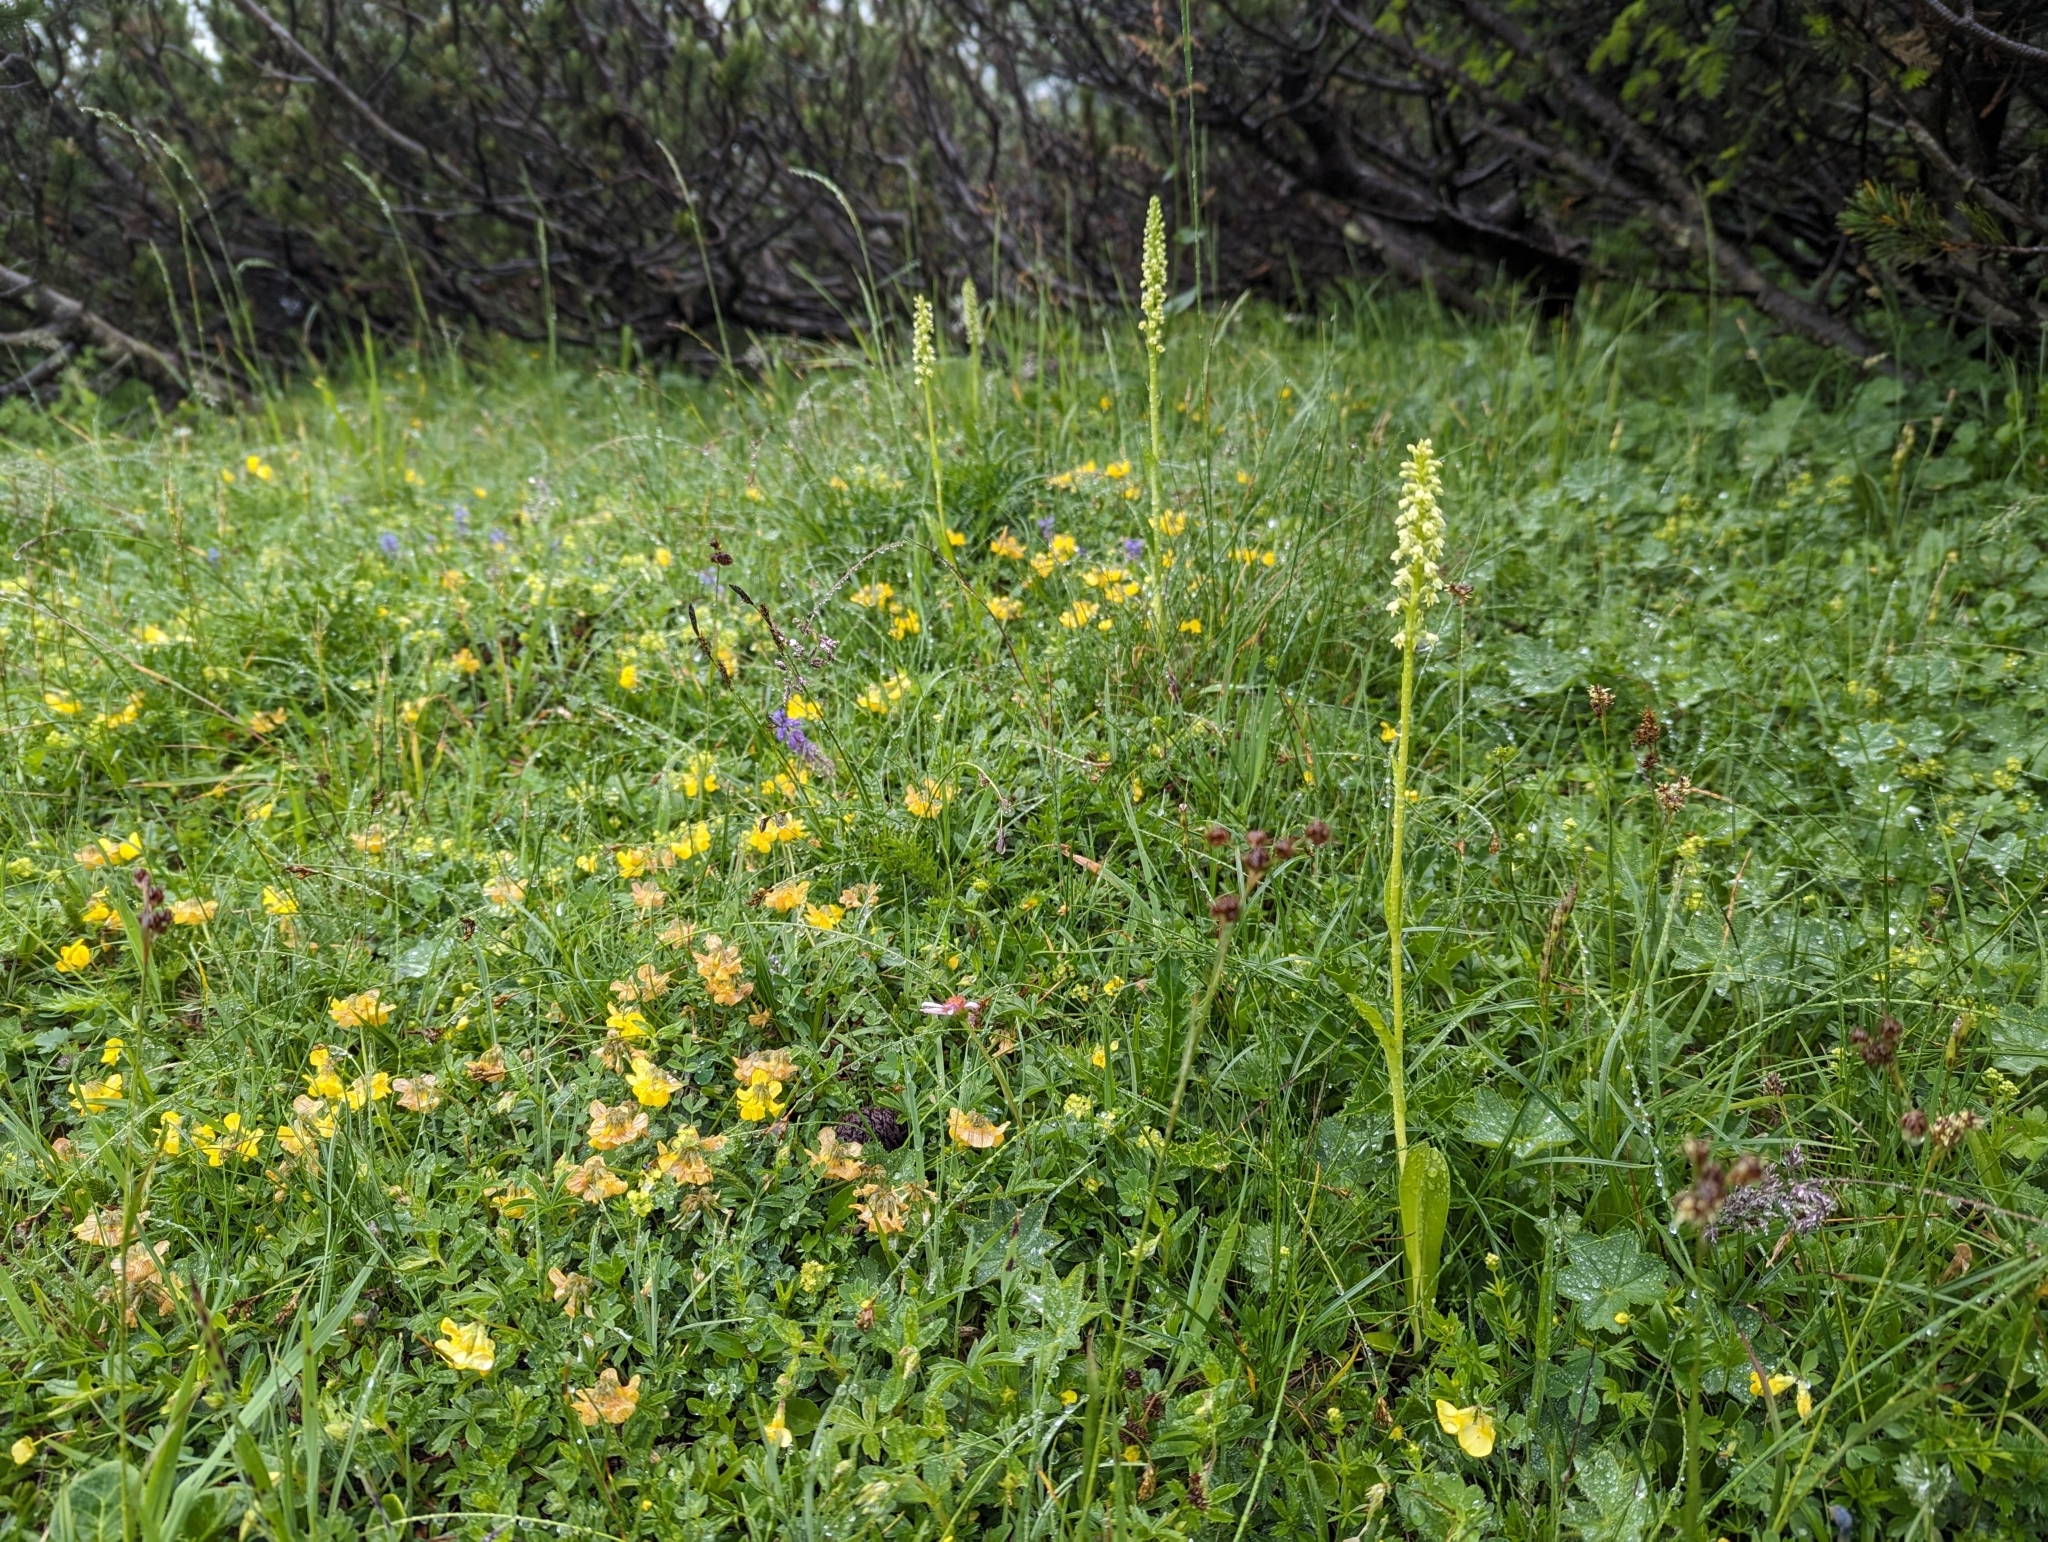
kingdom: Plantae
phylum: Tracheophyta
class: Liliopsida
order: Asparagales
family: Orchidaceae
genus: Pseudorchis
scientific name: Pseudorchis albida
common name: Small-white orchid
